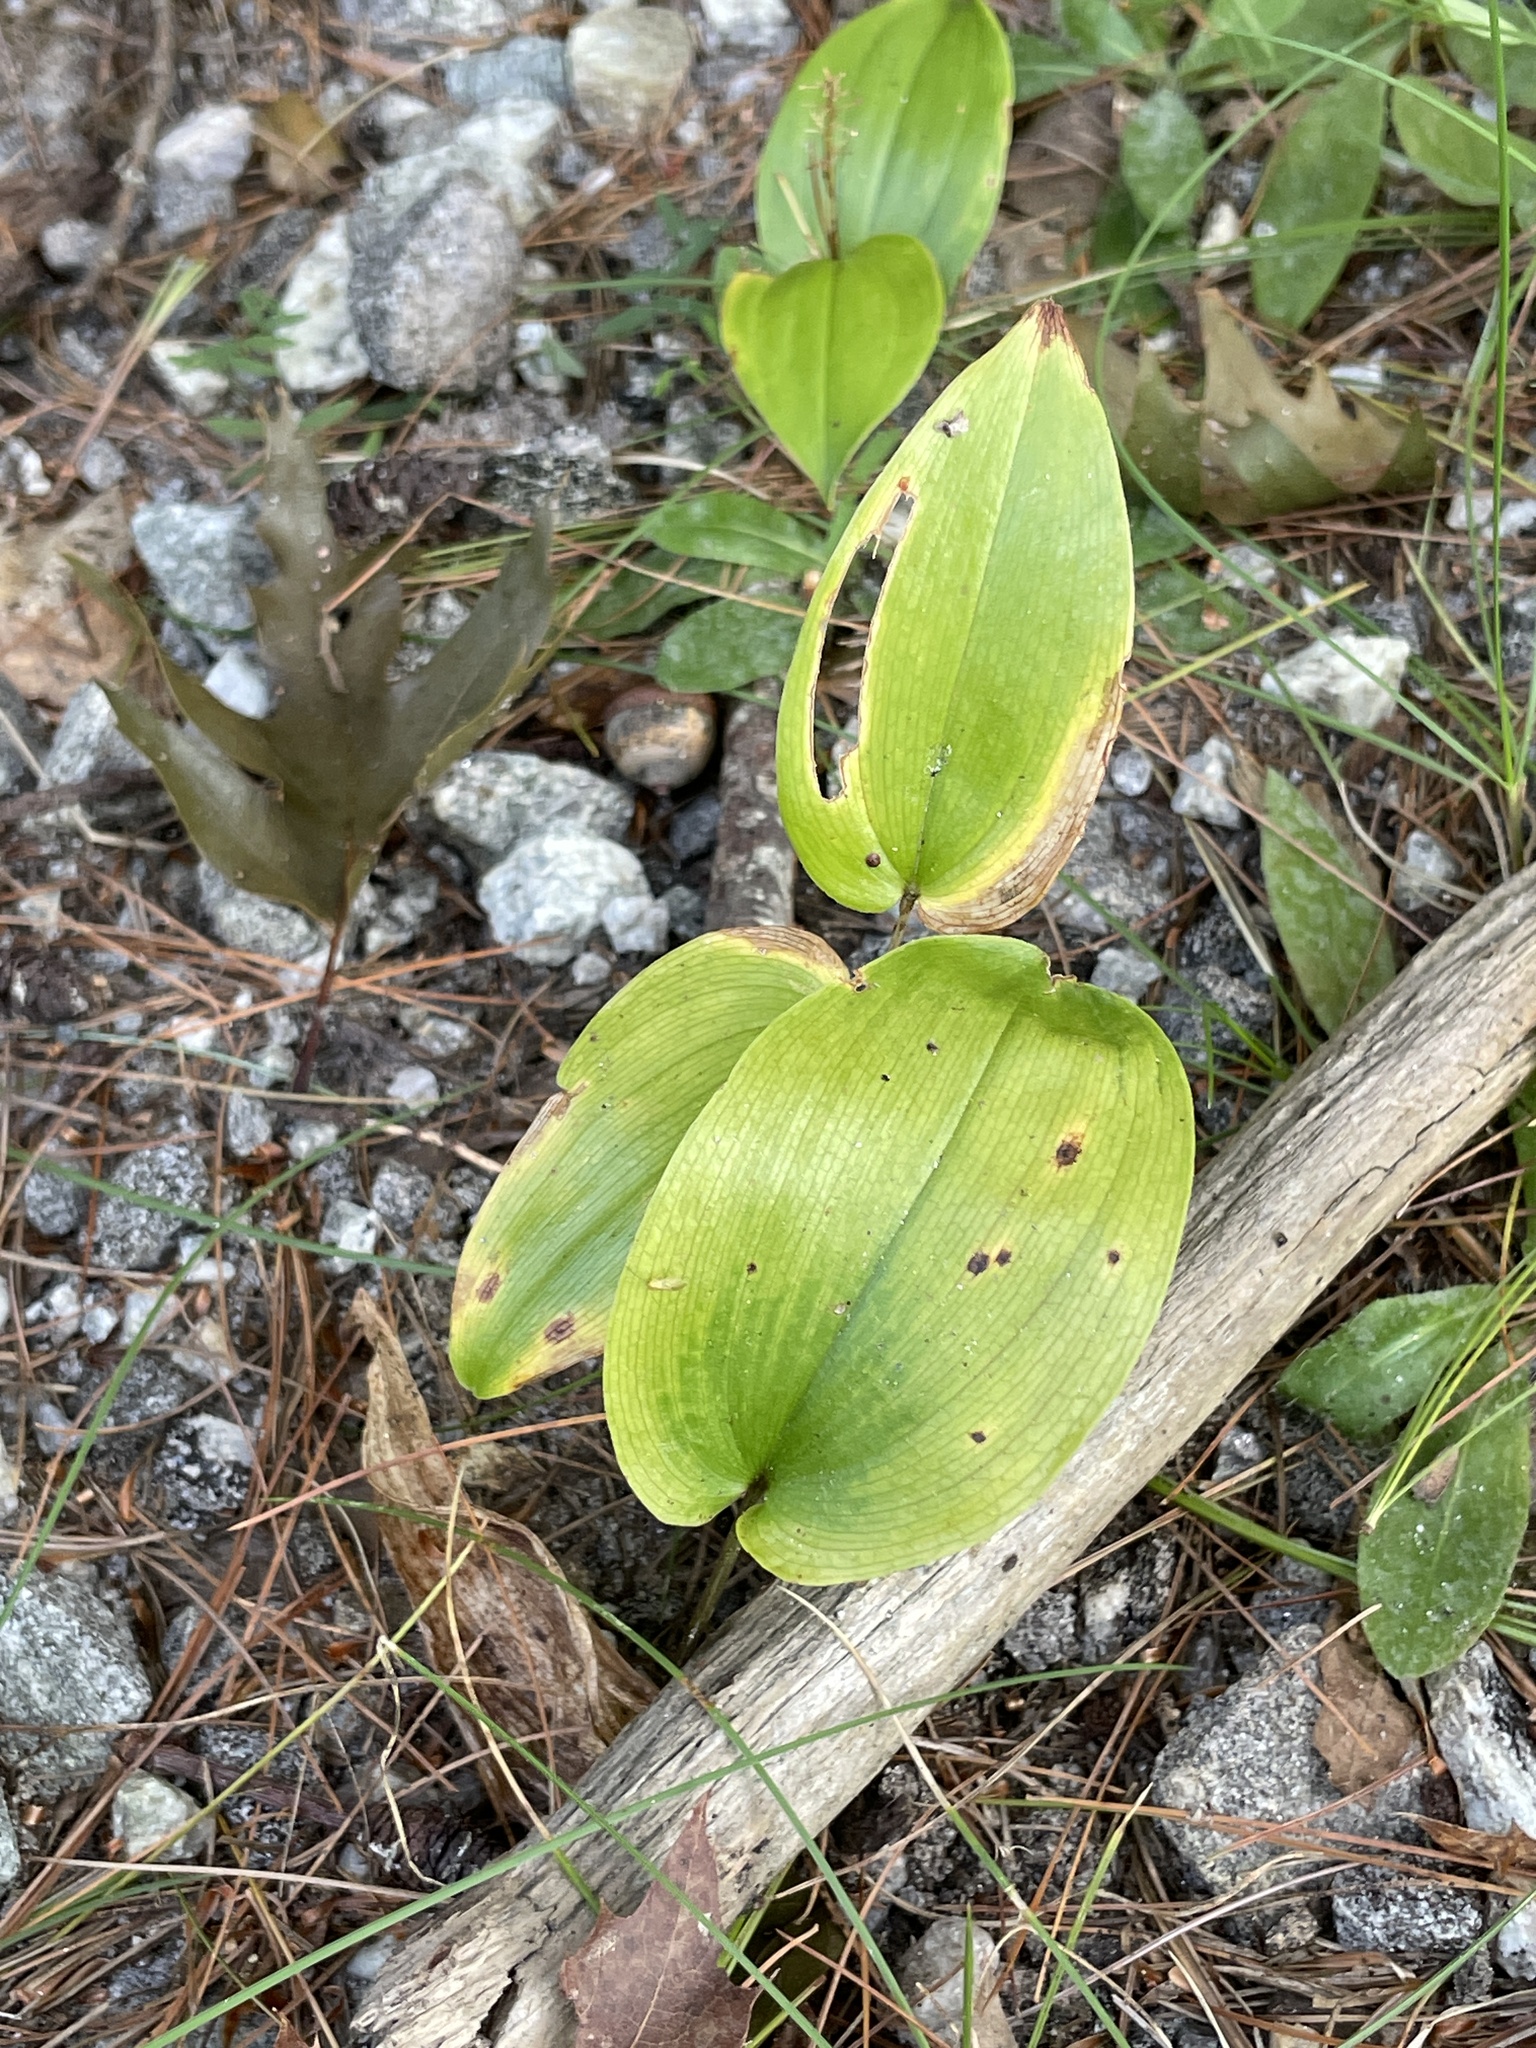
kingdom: Plantae
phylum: Tracheophyta
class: Liliopsida
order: Asparagales
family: Asparagaceae
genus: Maianthemum
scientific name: Maianthemum canadense
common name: False lily-of-the-valley
